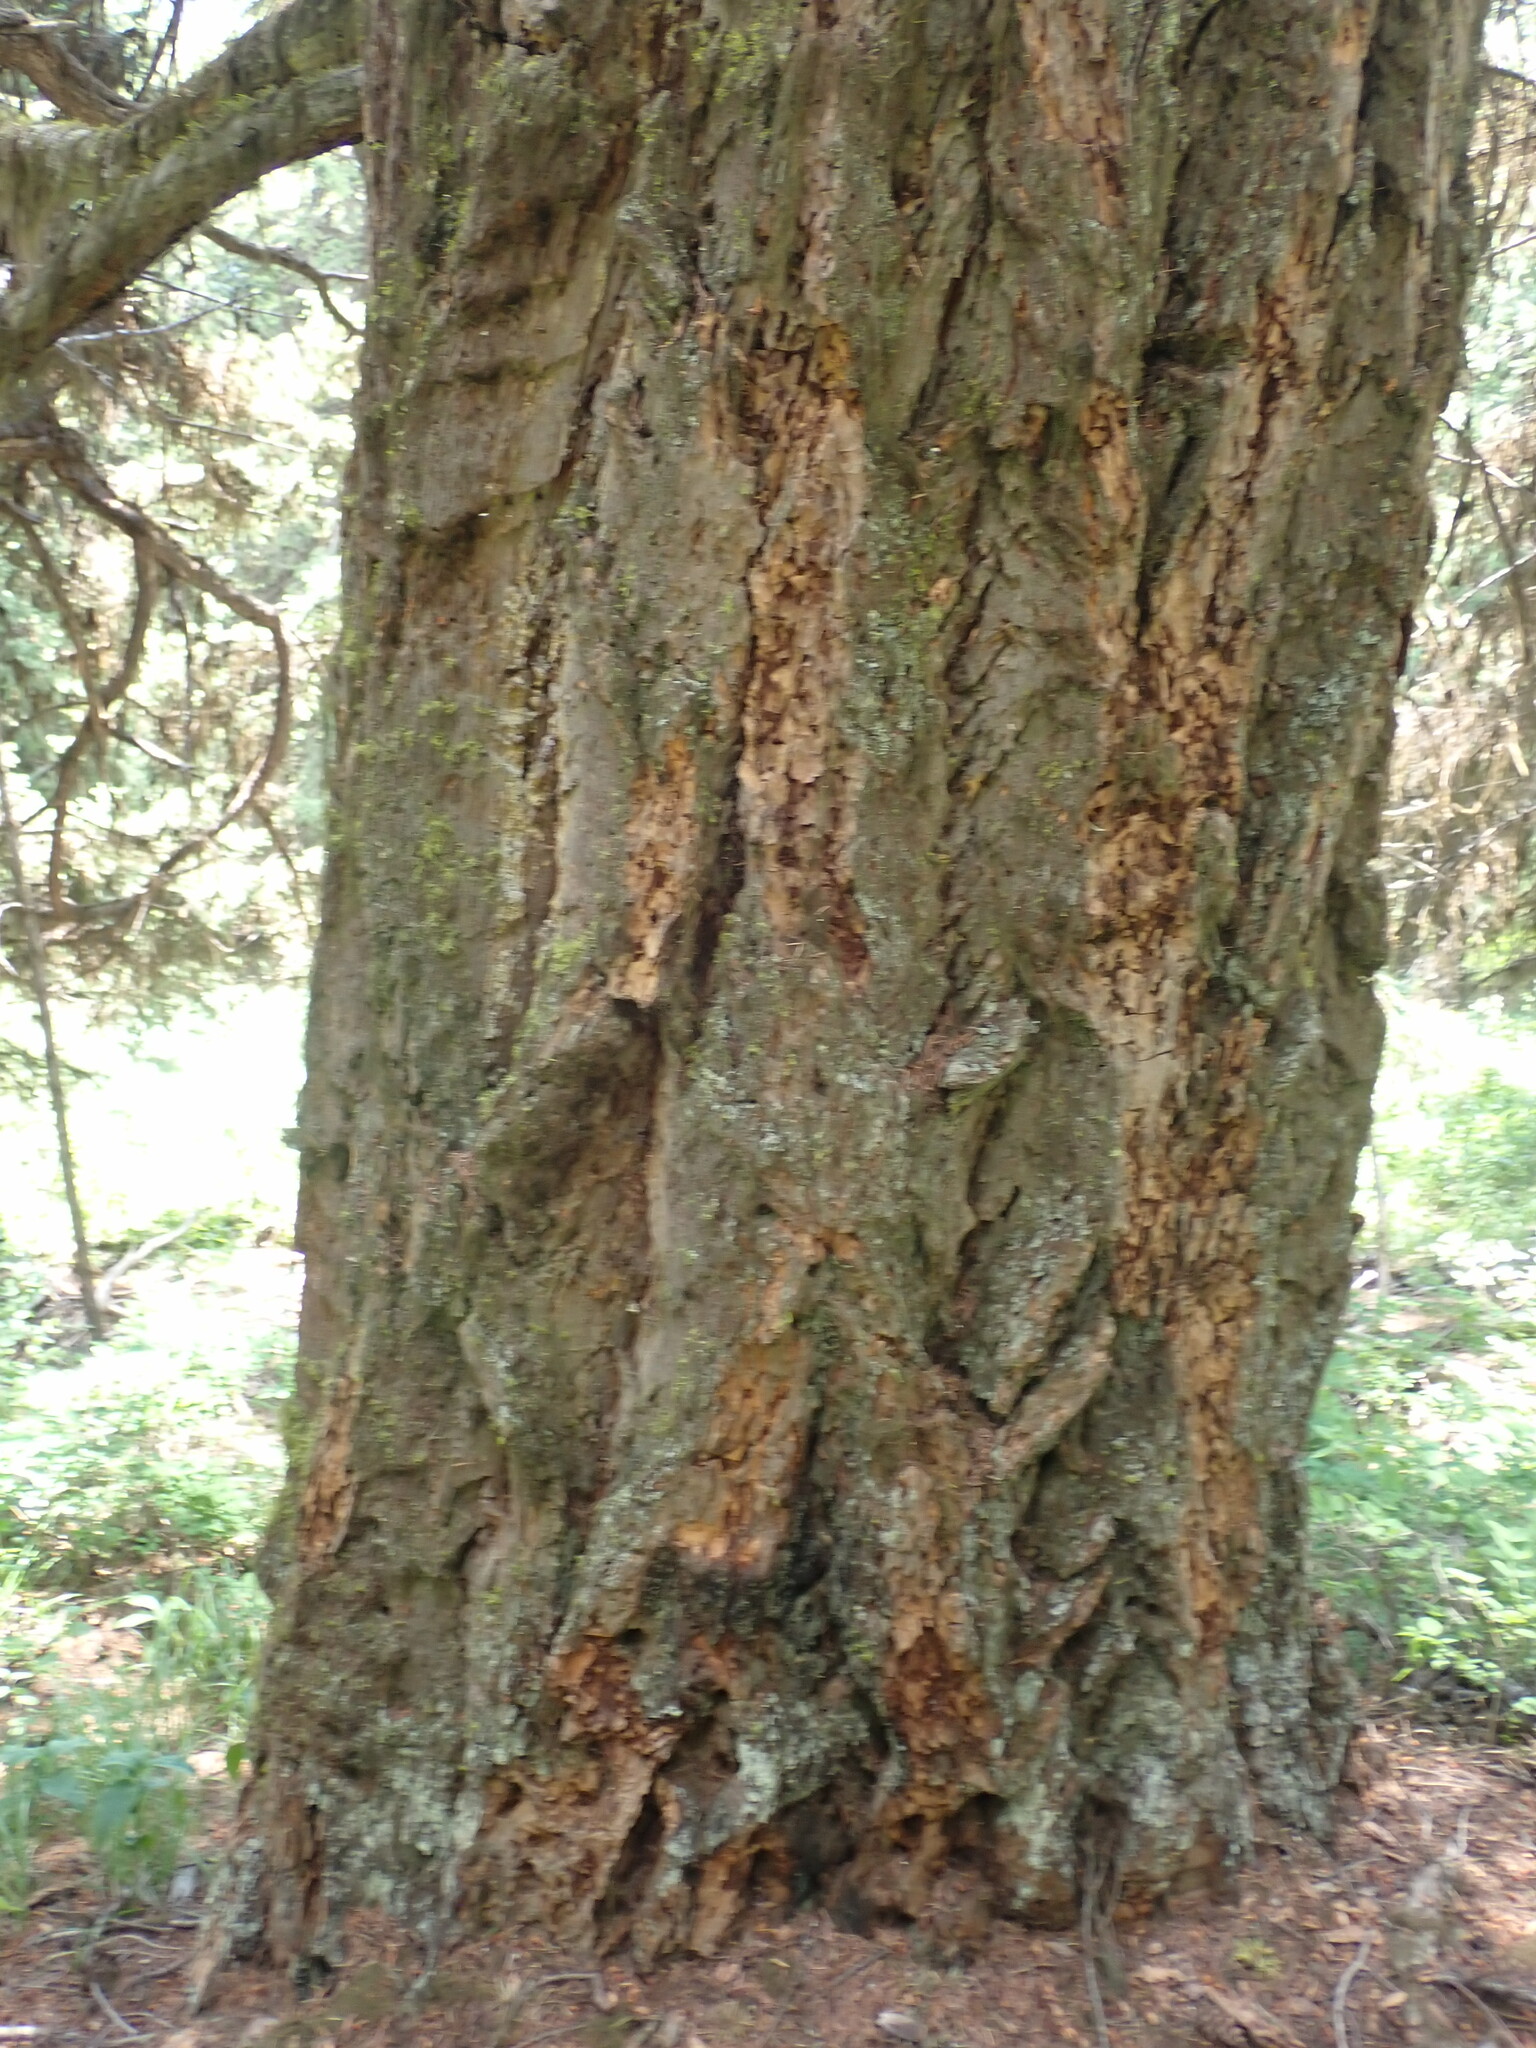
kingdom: Plantae
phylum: Tracheophyta
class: Pinopsida
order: Pinales
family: Pinaceae
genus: Pseudotsuga
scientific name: Pseudotsuga menziesii
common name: Douglas fir
